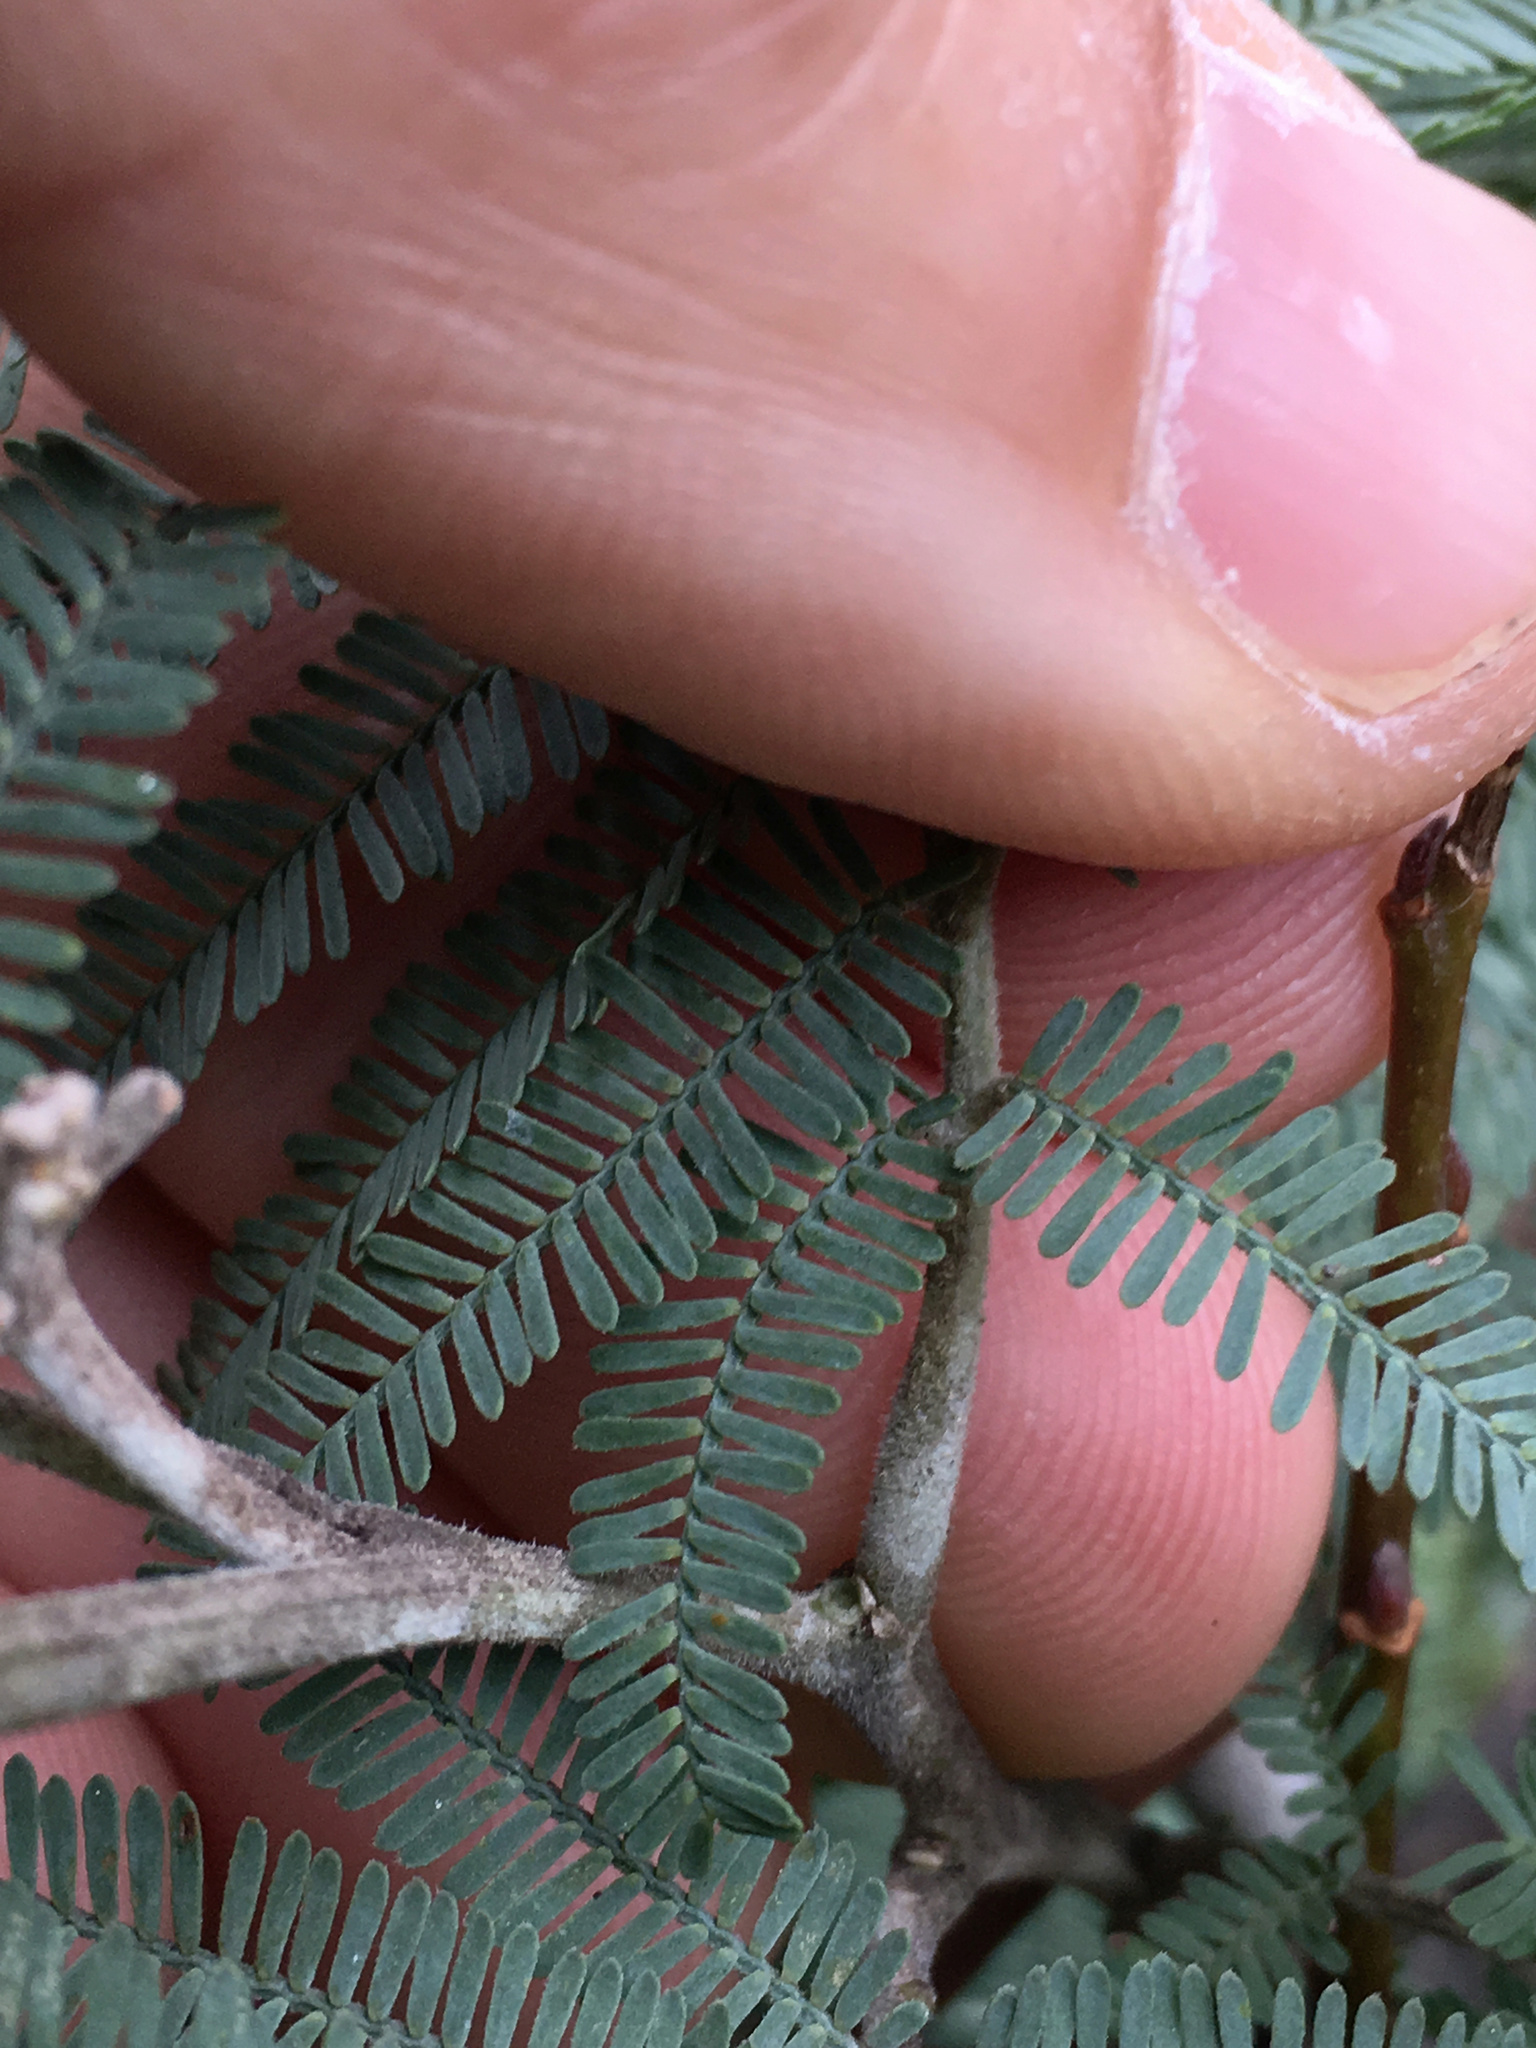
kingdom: Plantae
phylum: Tracheophyta
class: Magnoliopsida
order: Fabales
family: Fabaceae
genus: Acacia
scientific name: Acacia dealbata
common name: Silver wattle
